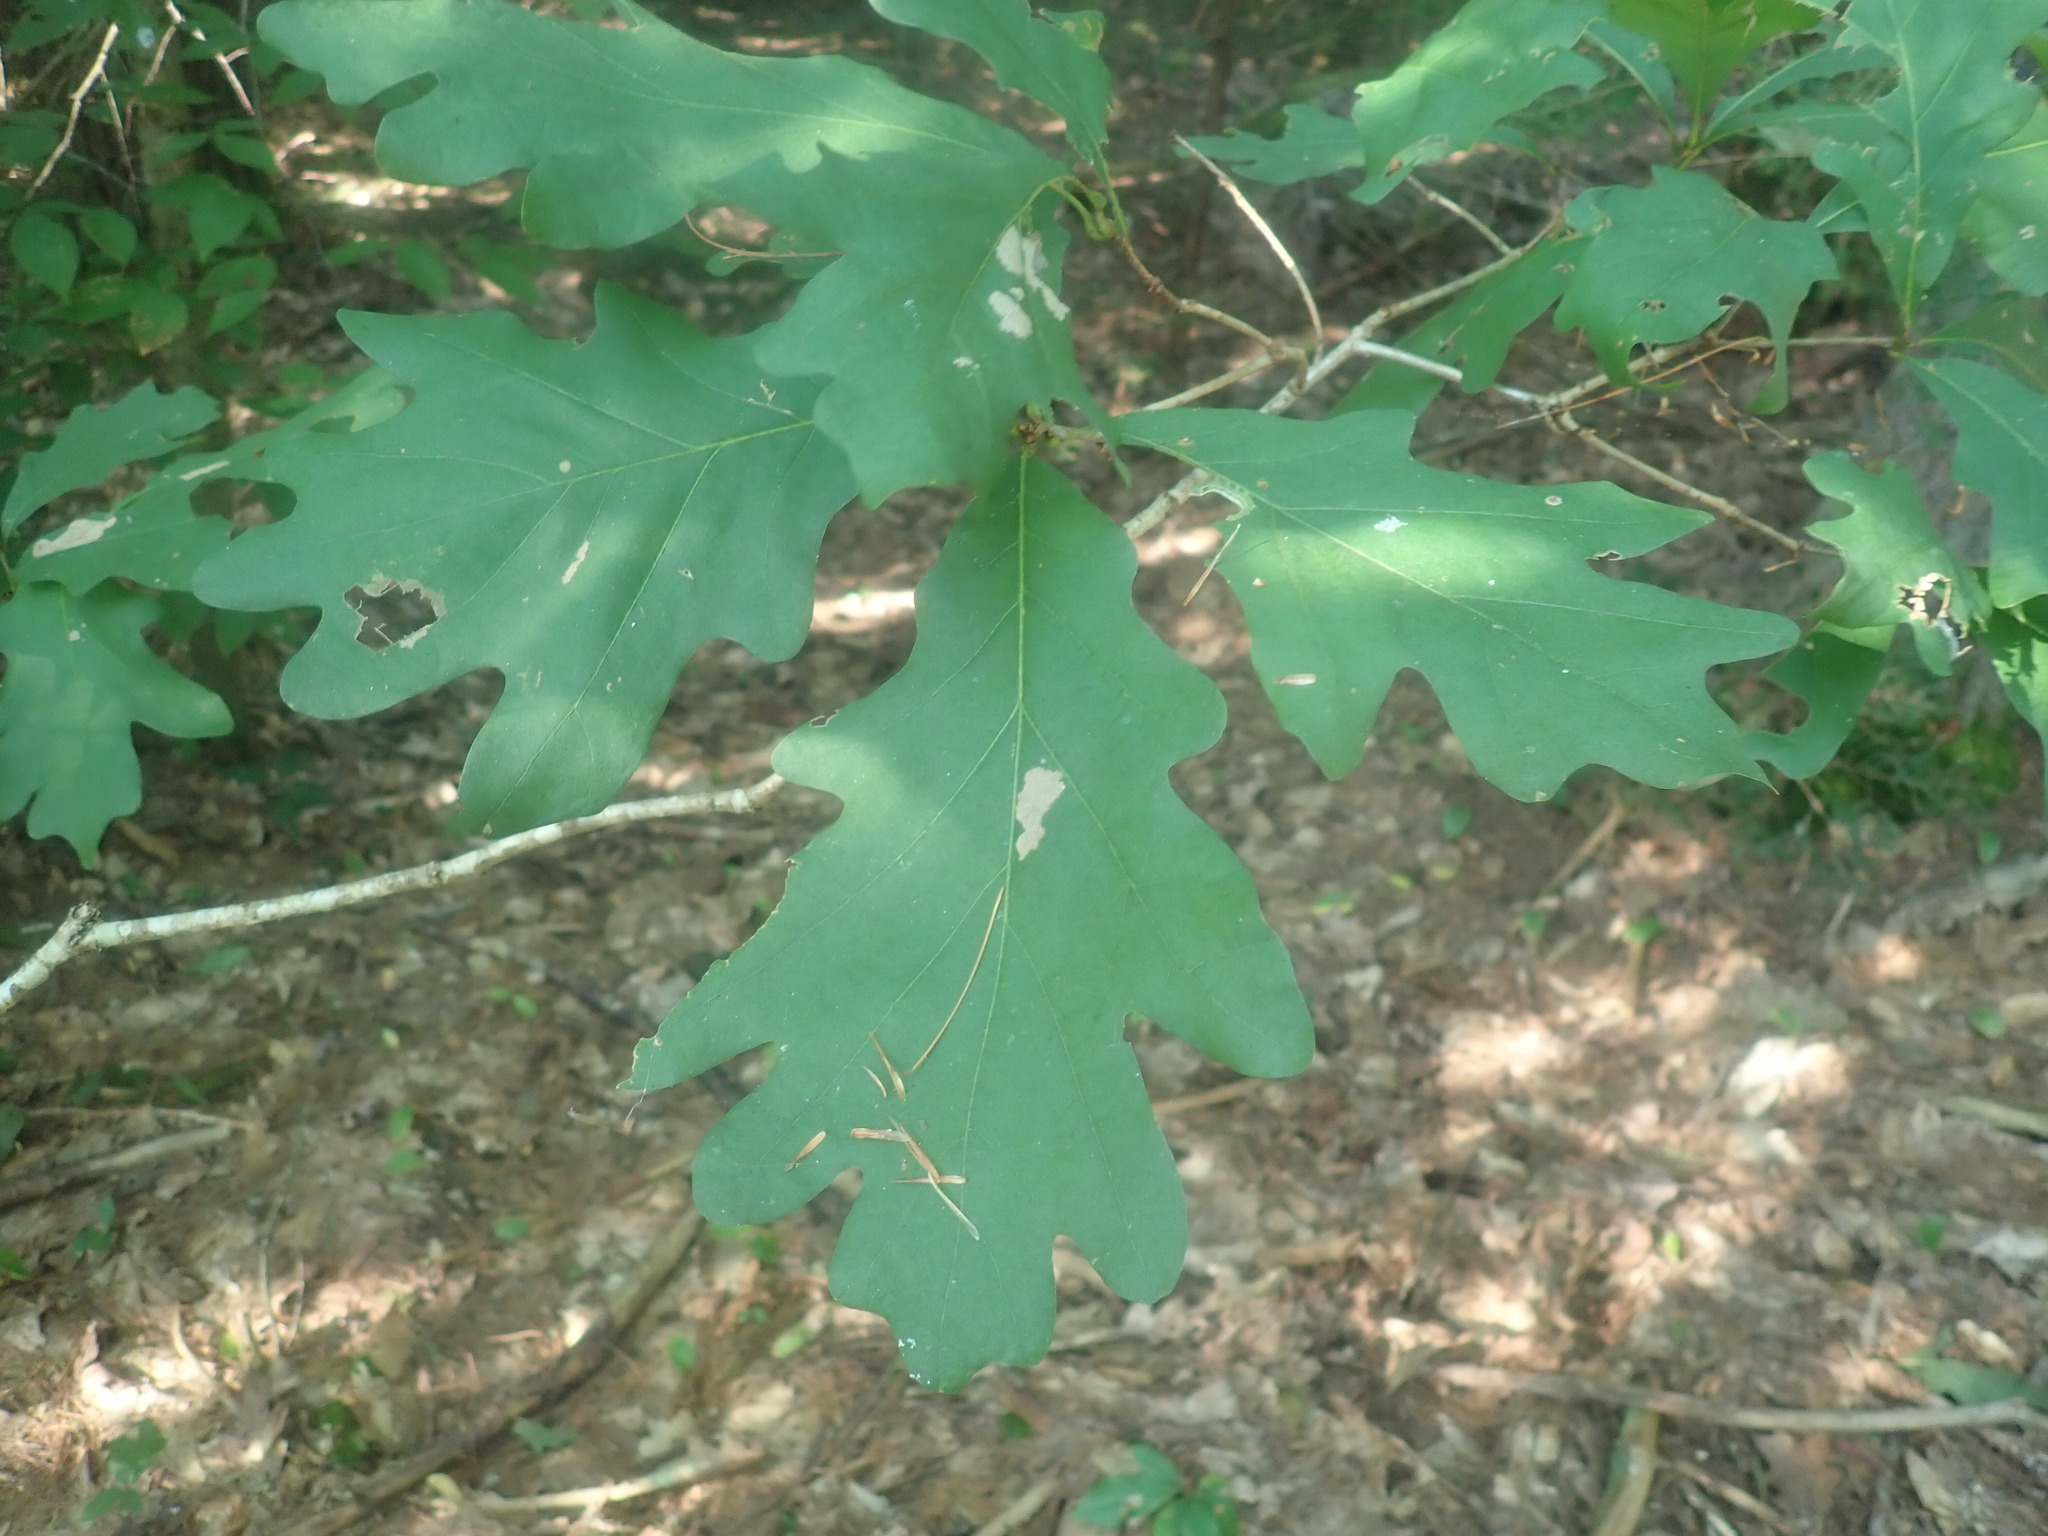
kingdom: Plantae
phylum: Tracheophyta
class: Magnoliopsida
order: Fagales
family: Fagaceae
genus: Quercus
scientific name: Quercus alba
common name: White oak
